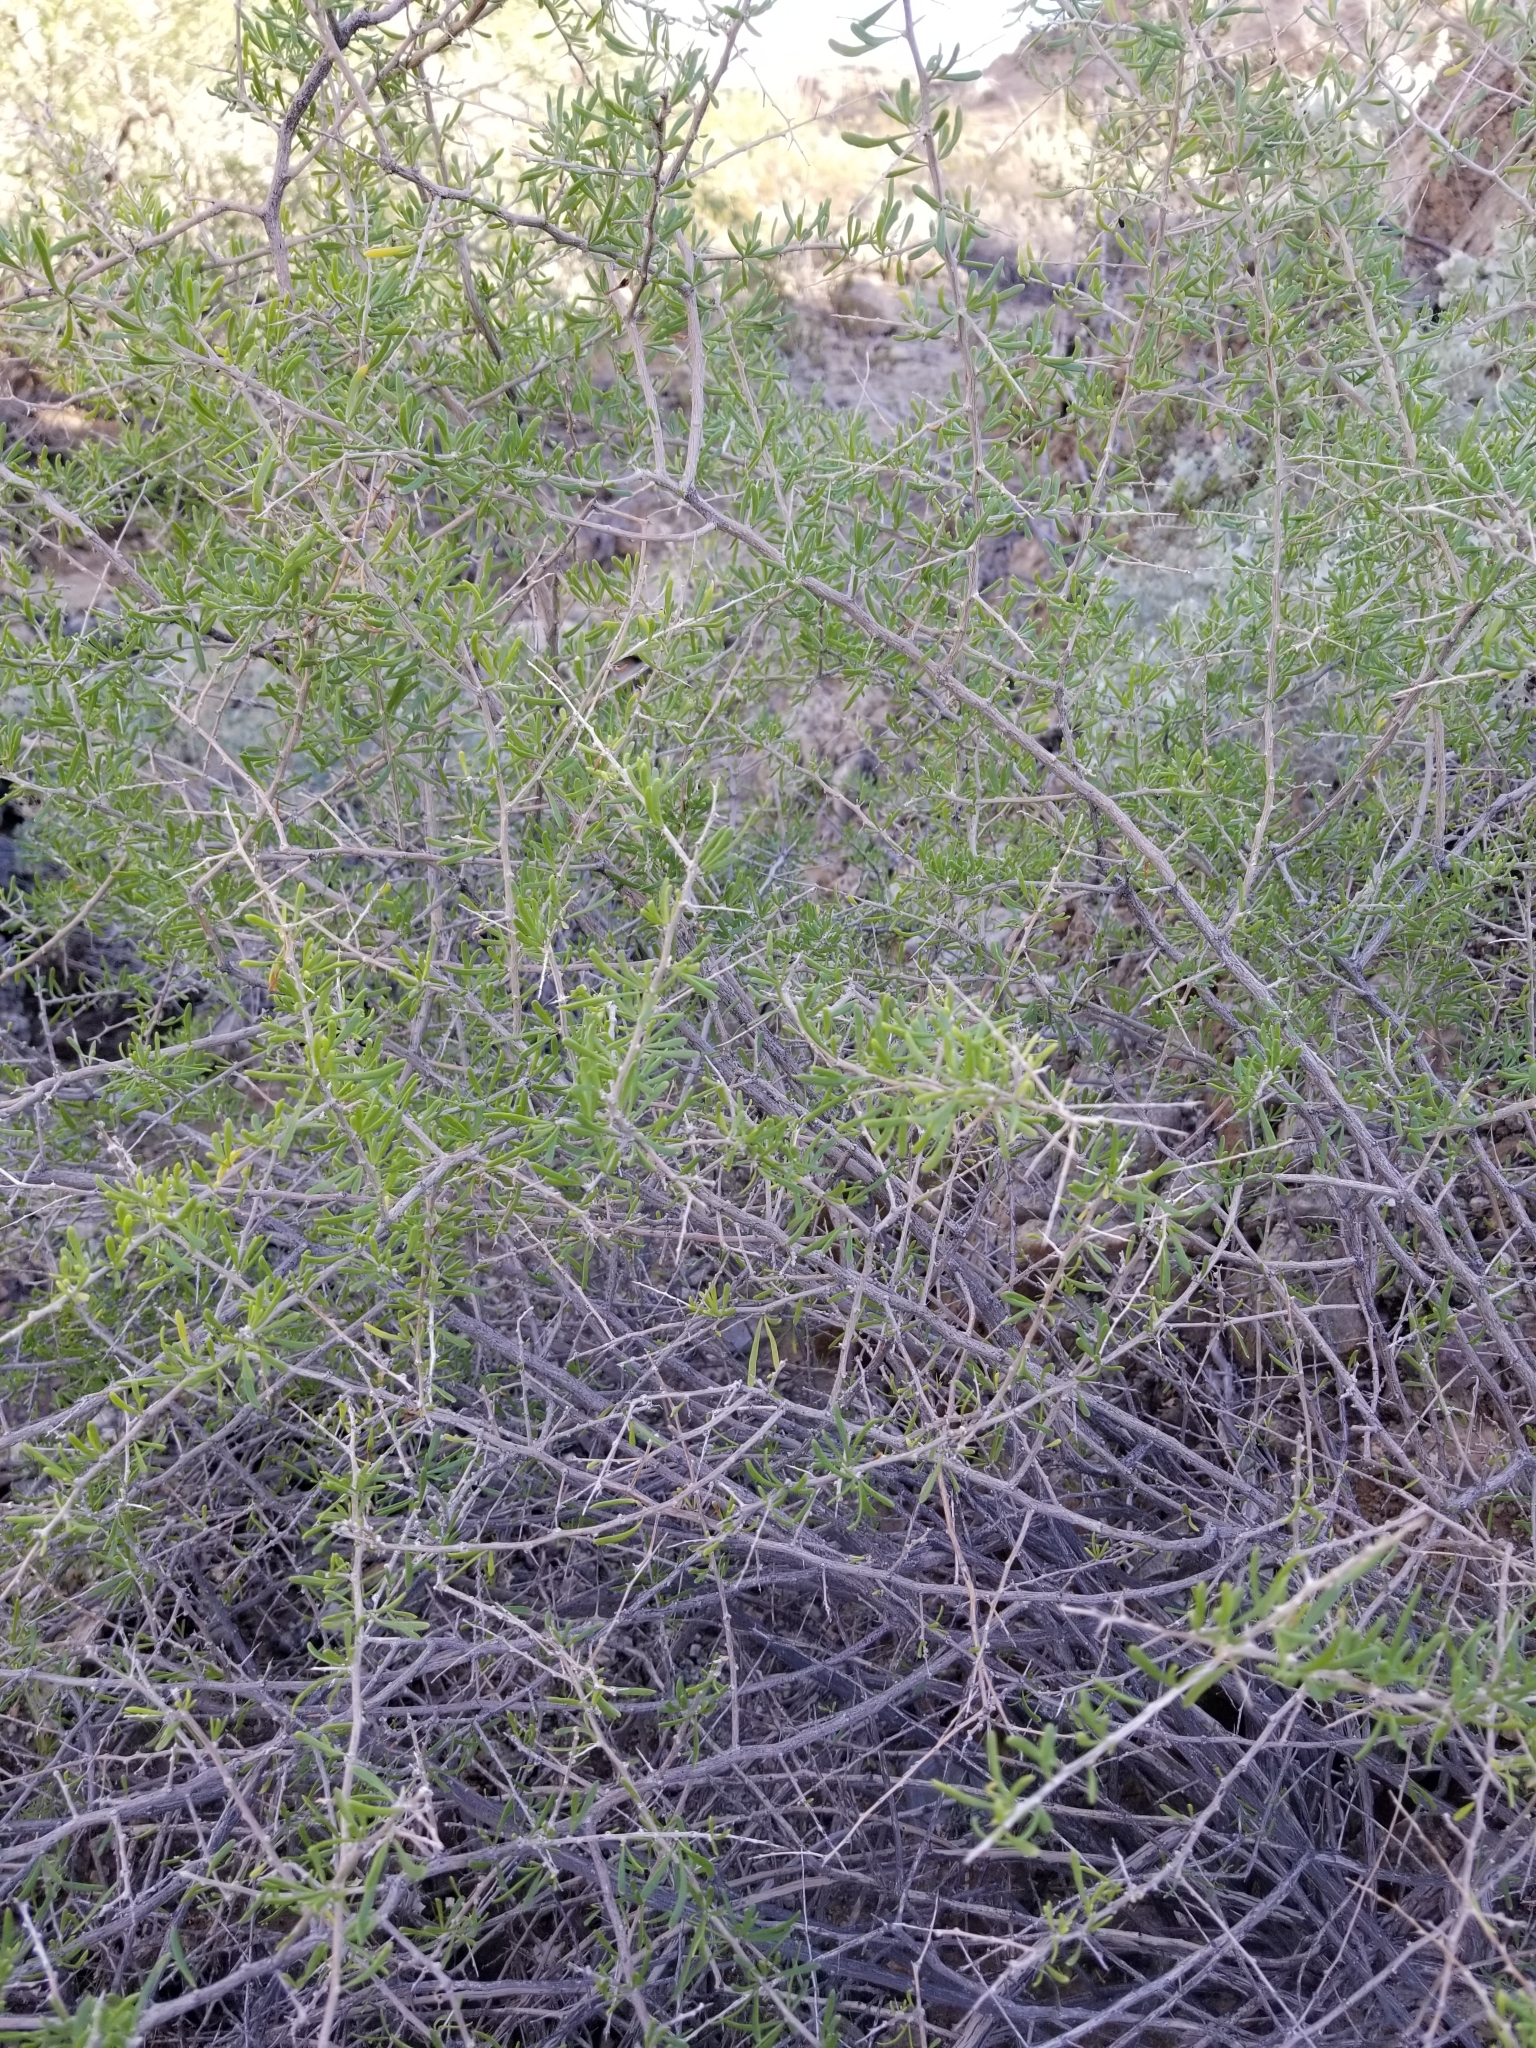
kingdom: Plantae
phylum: Tracheophyta
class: Magnoliopsida
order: Solanales
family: Solanaceae
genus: Lycium
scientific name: Lycium andersonii
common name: Water-jacket
